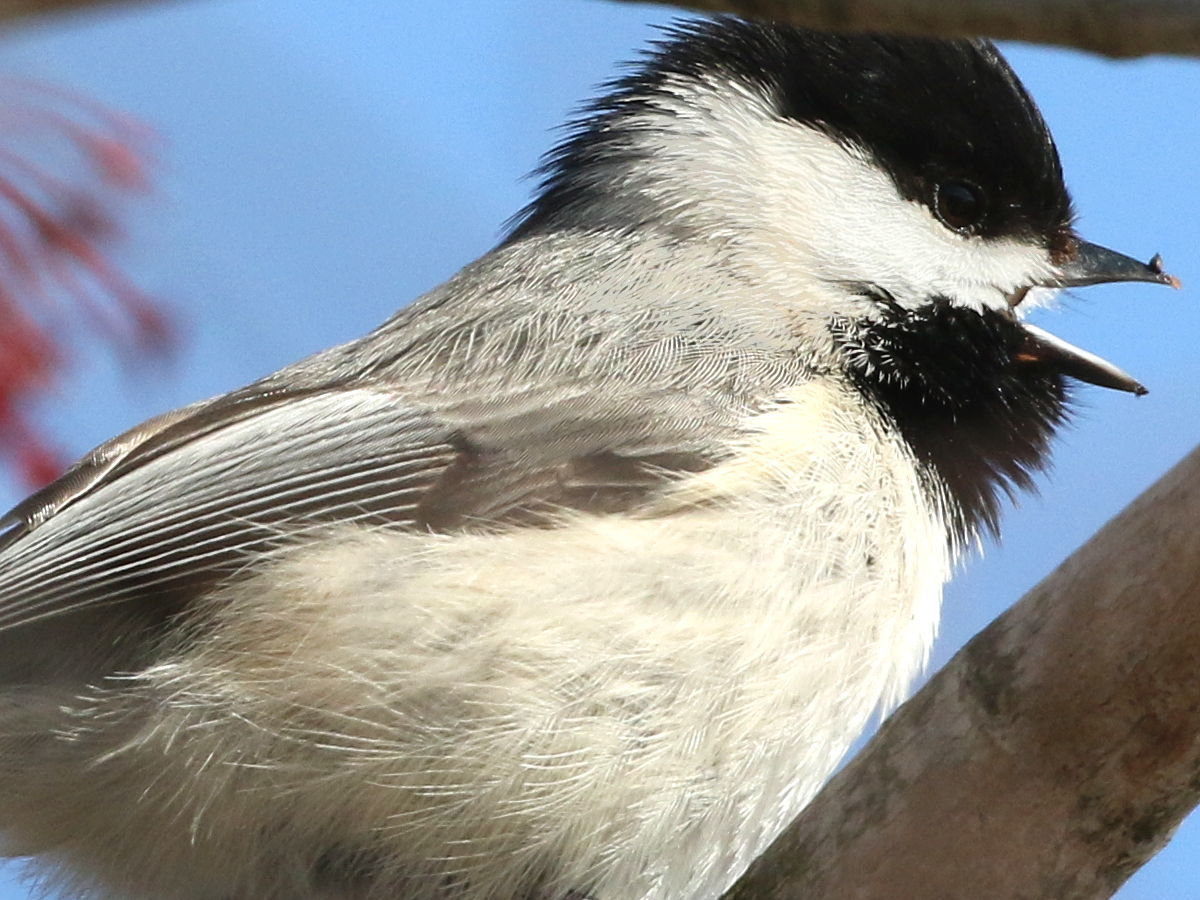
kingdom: Animalia
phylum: Chordata
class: Aves
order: Passeriformes
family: Paridae
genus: Poecile
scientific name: Poecile carolinensis
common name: Carolina chickadee
